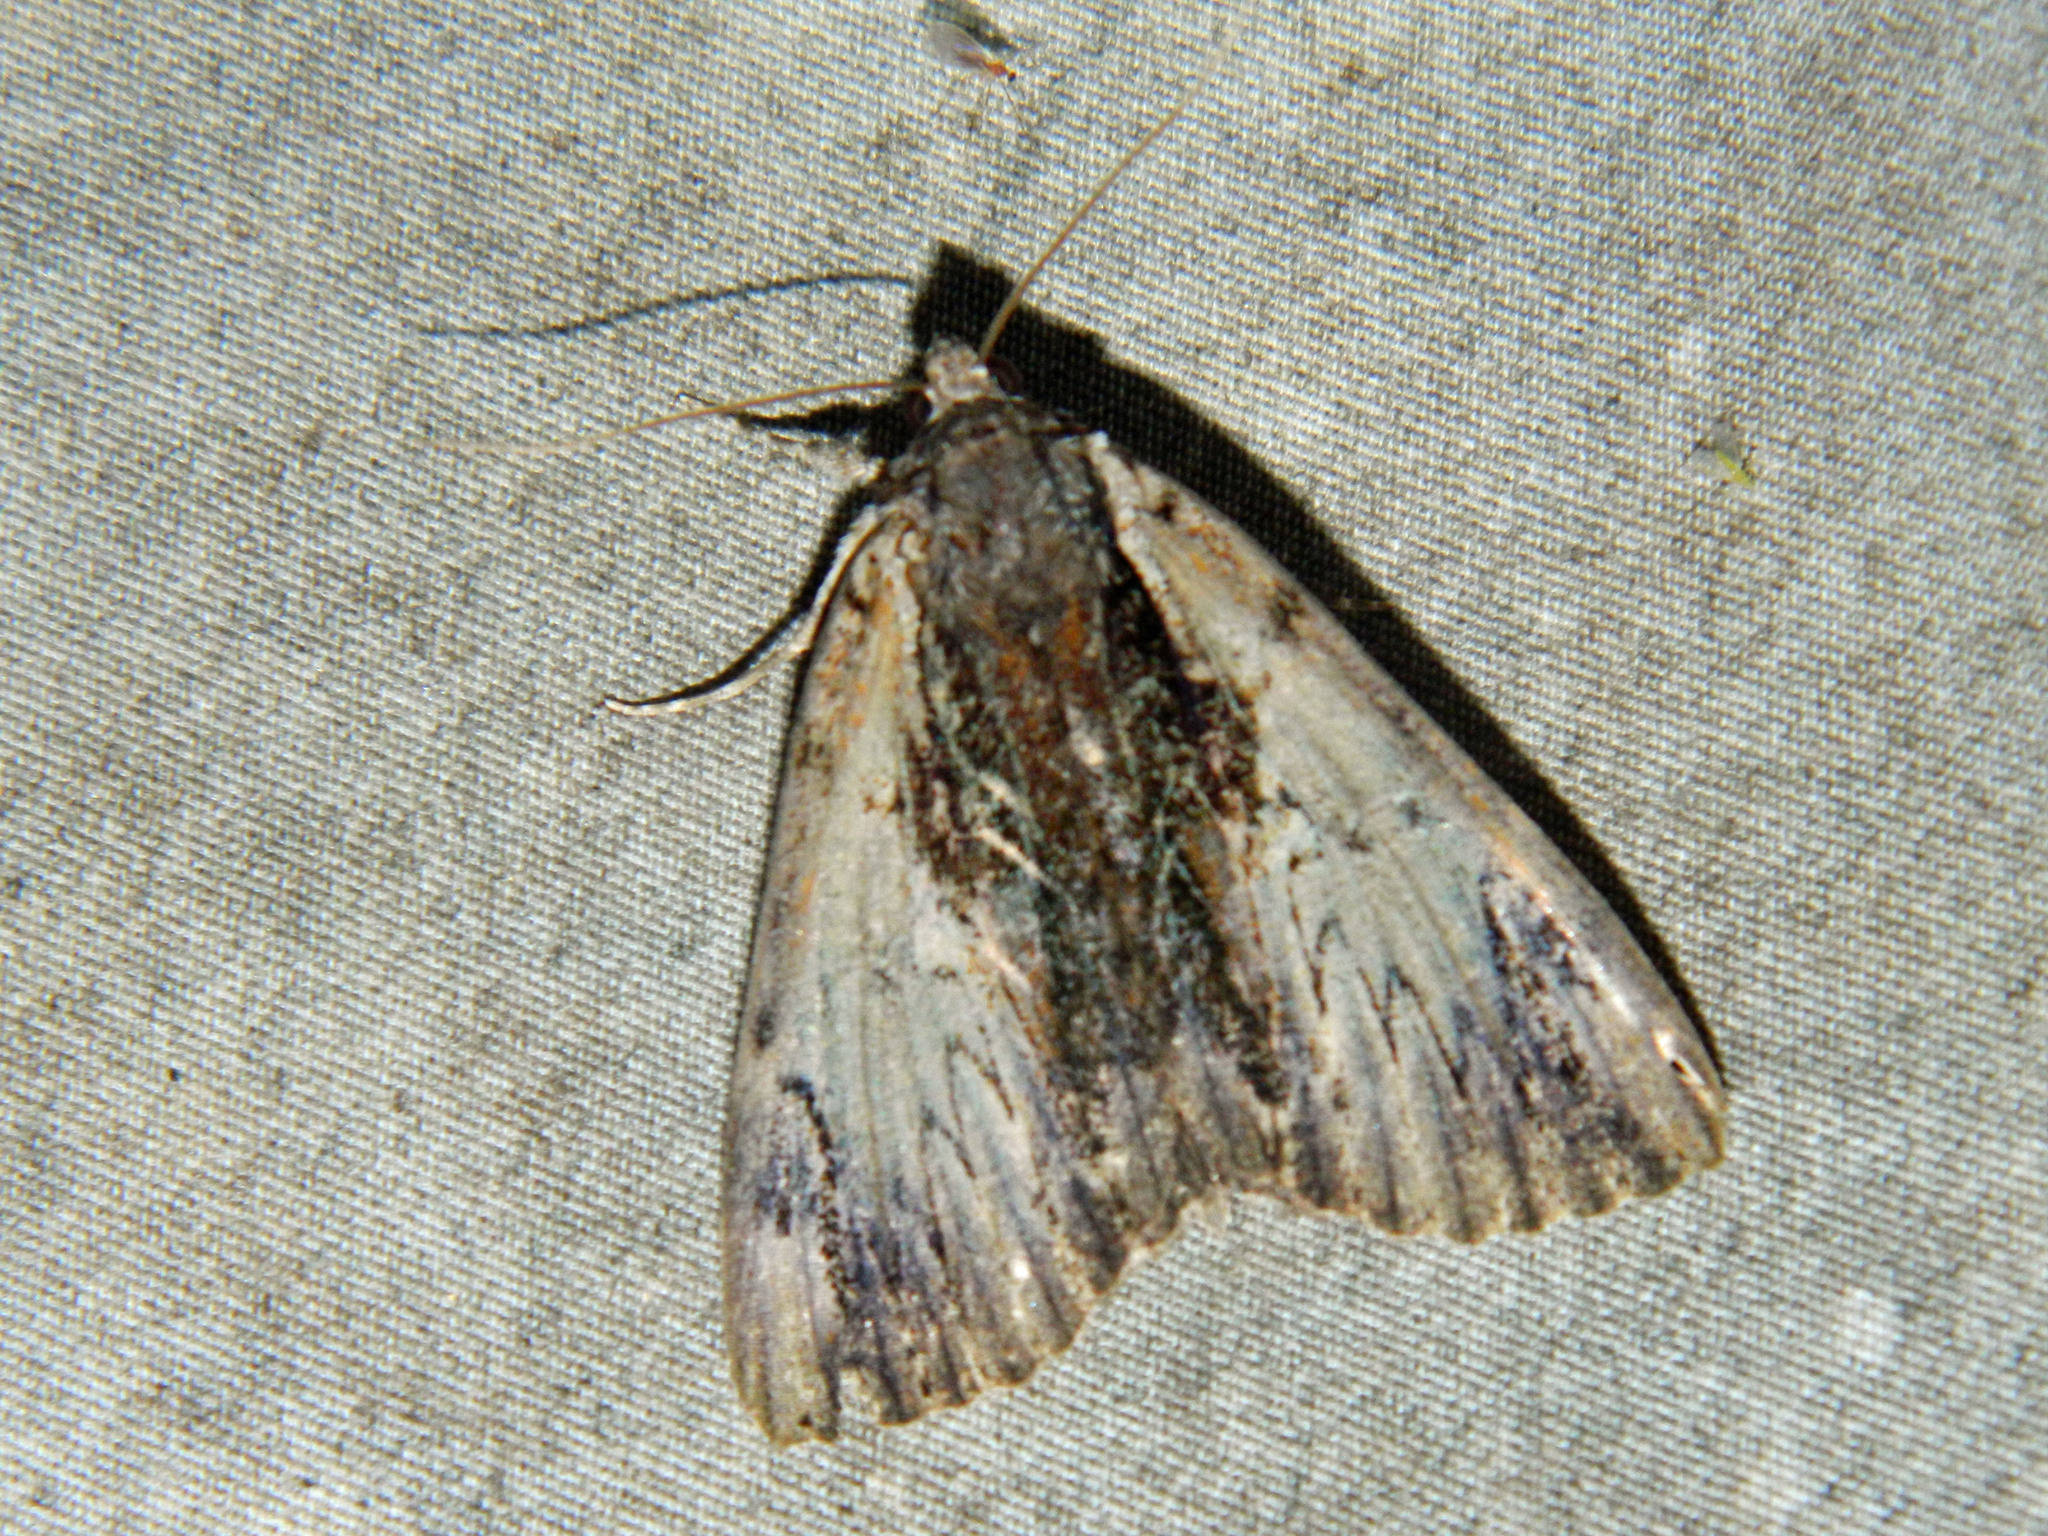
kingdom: Animalia
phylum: Arthropoda
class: Insecta
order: Lepidoptera
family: Erebidae
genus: Catocala
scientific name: Catocala ultronia
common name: Ultronia underwing
